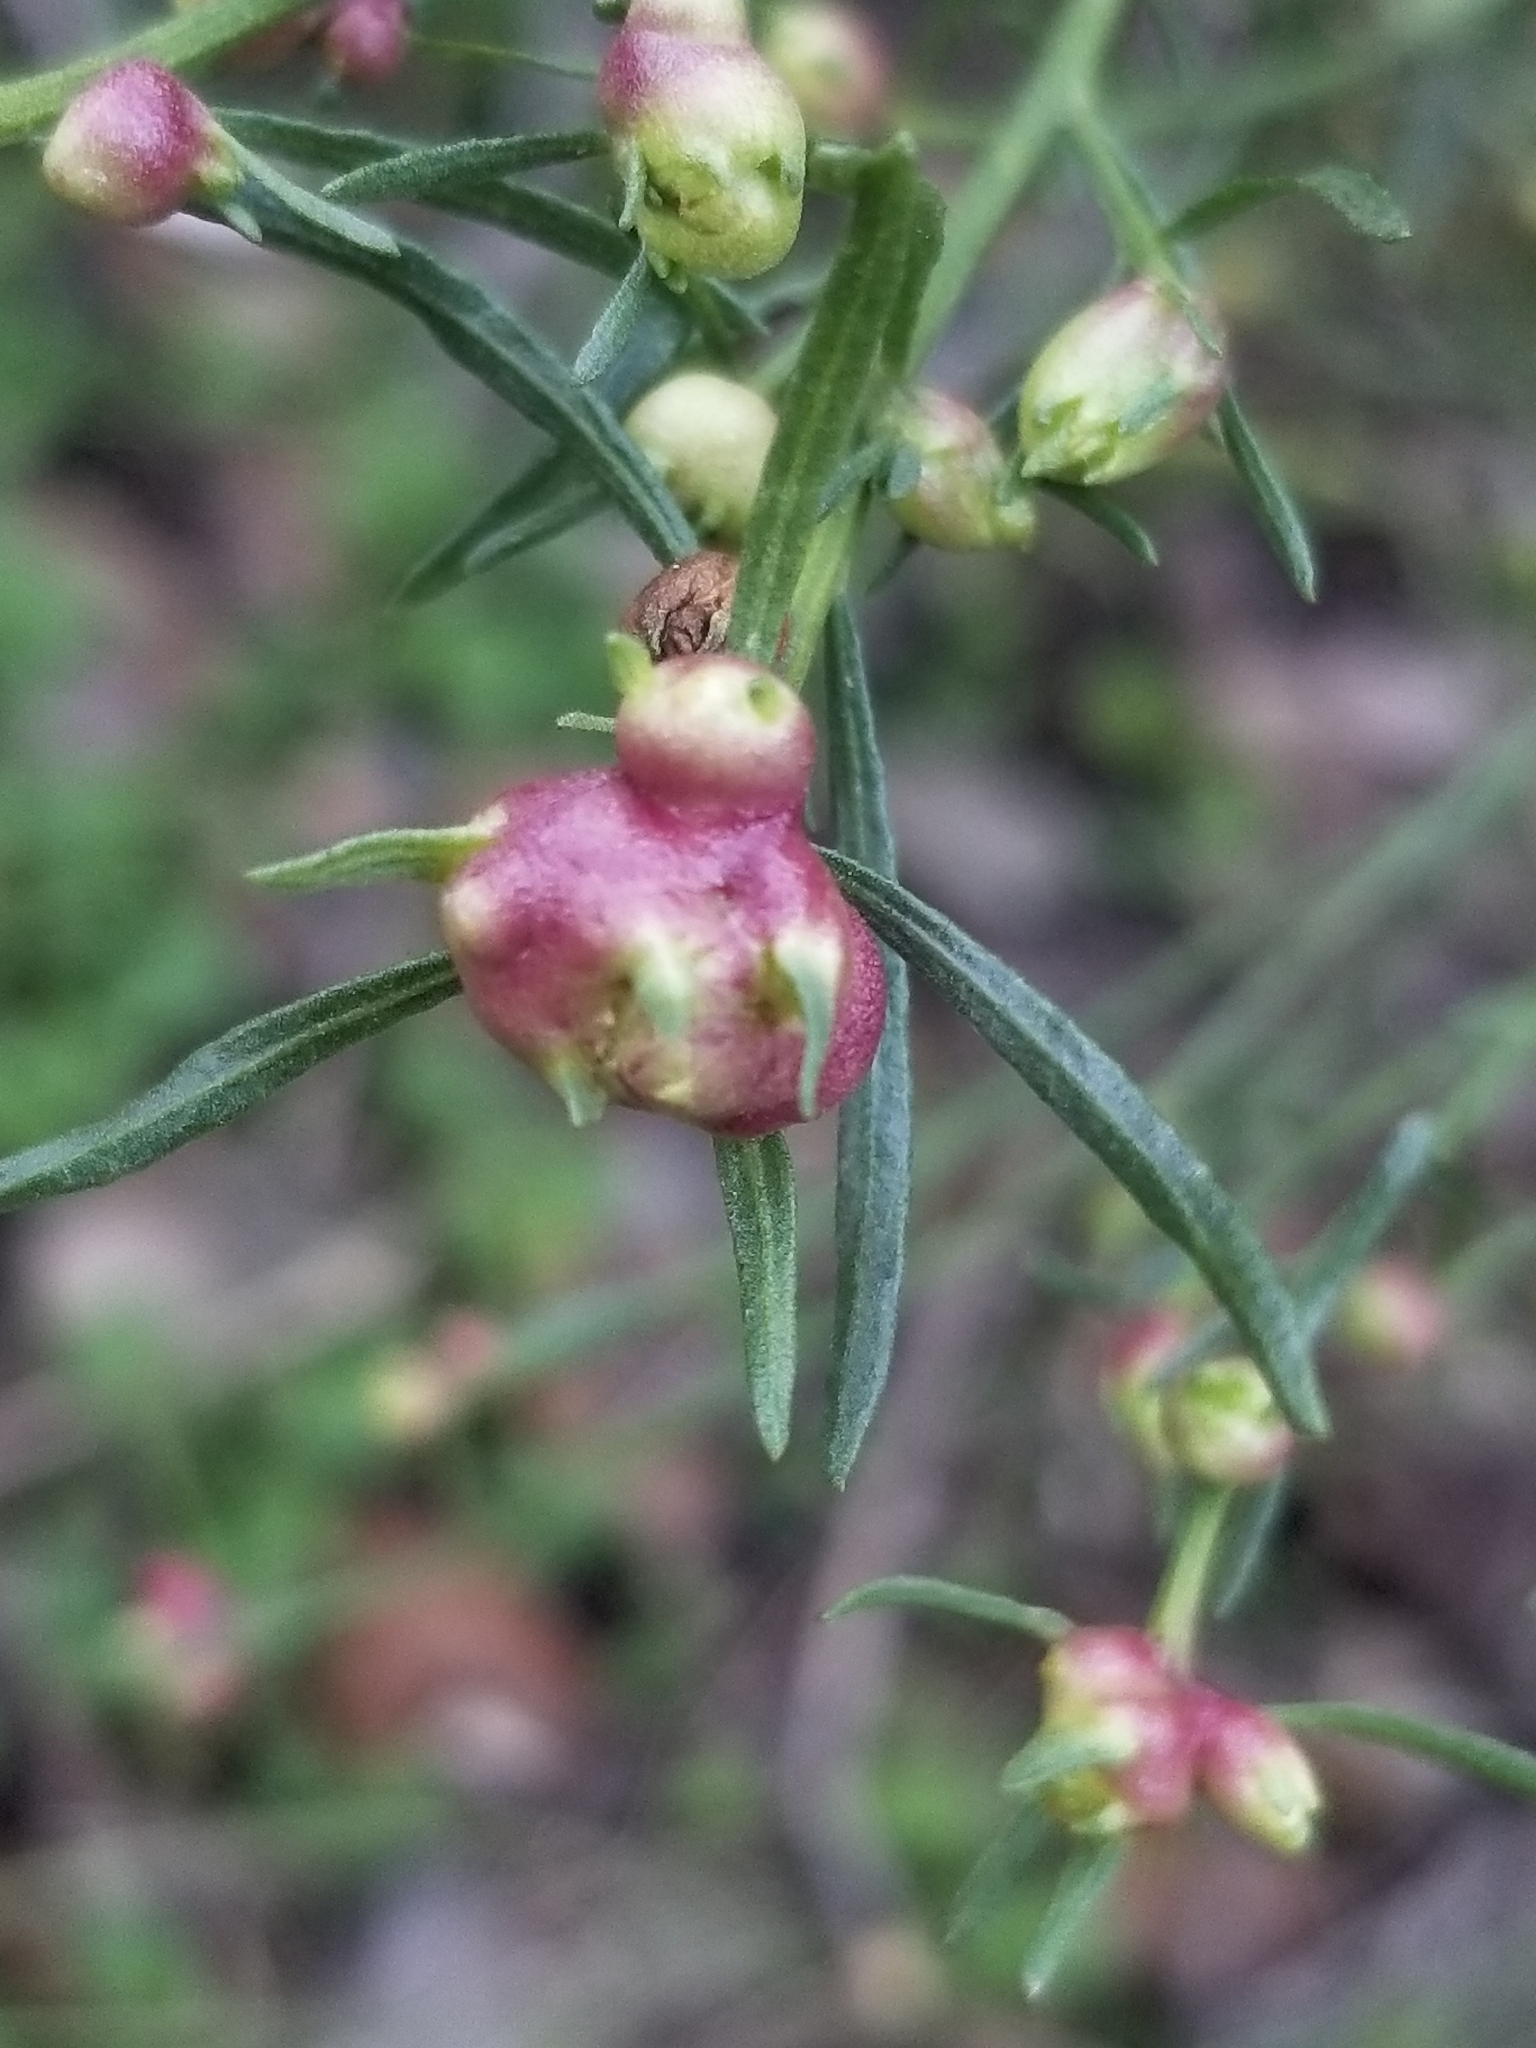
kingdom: Animalia
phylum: Arthropoda
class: Insecta
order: Diptera
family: Cecidomyiidae
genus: Rhopalomyia
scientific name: Rhopalomyia californica
